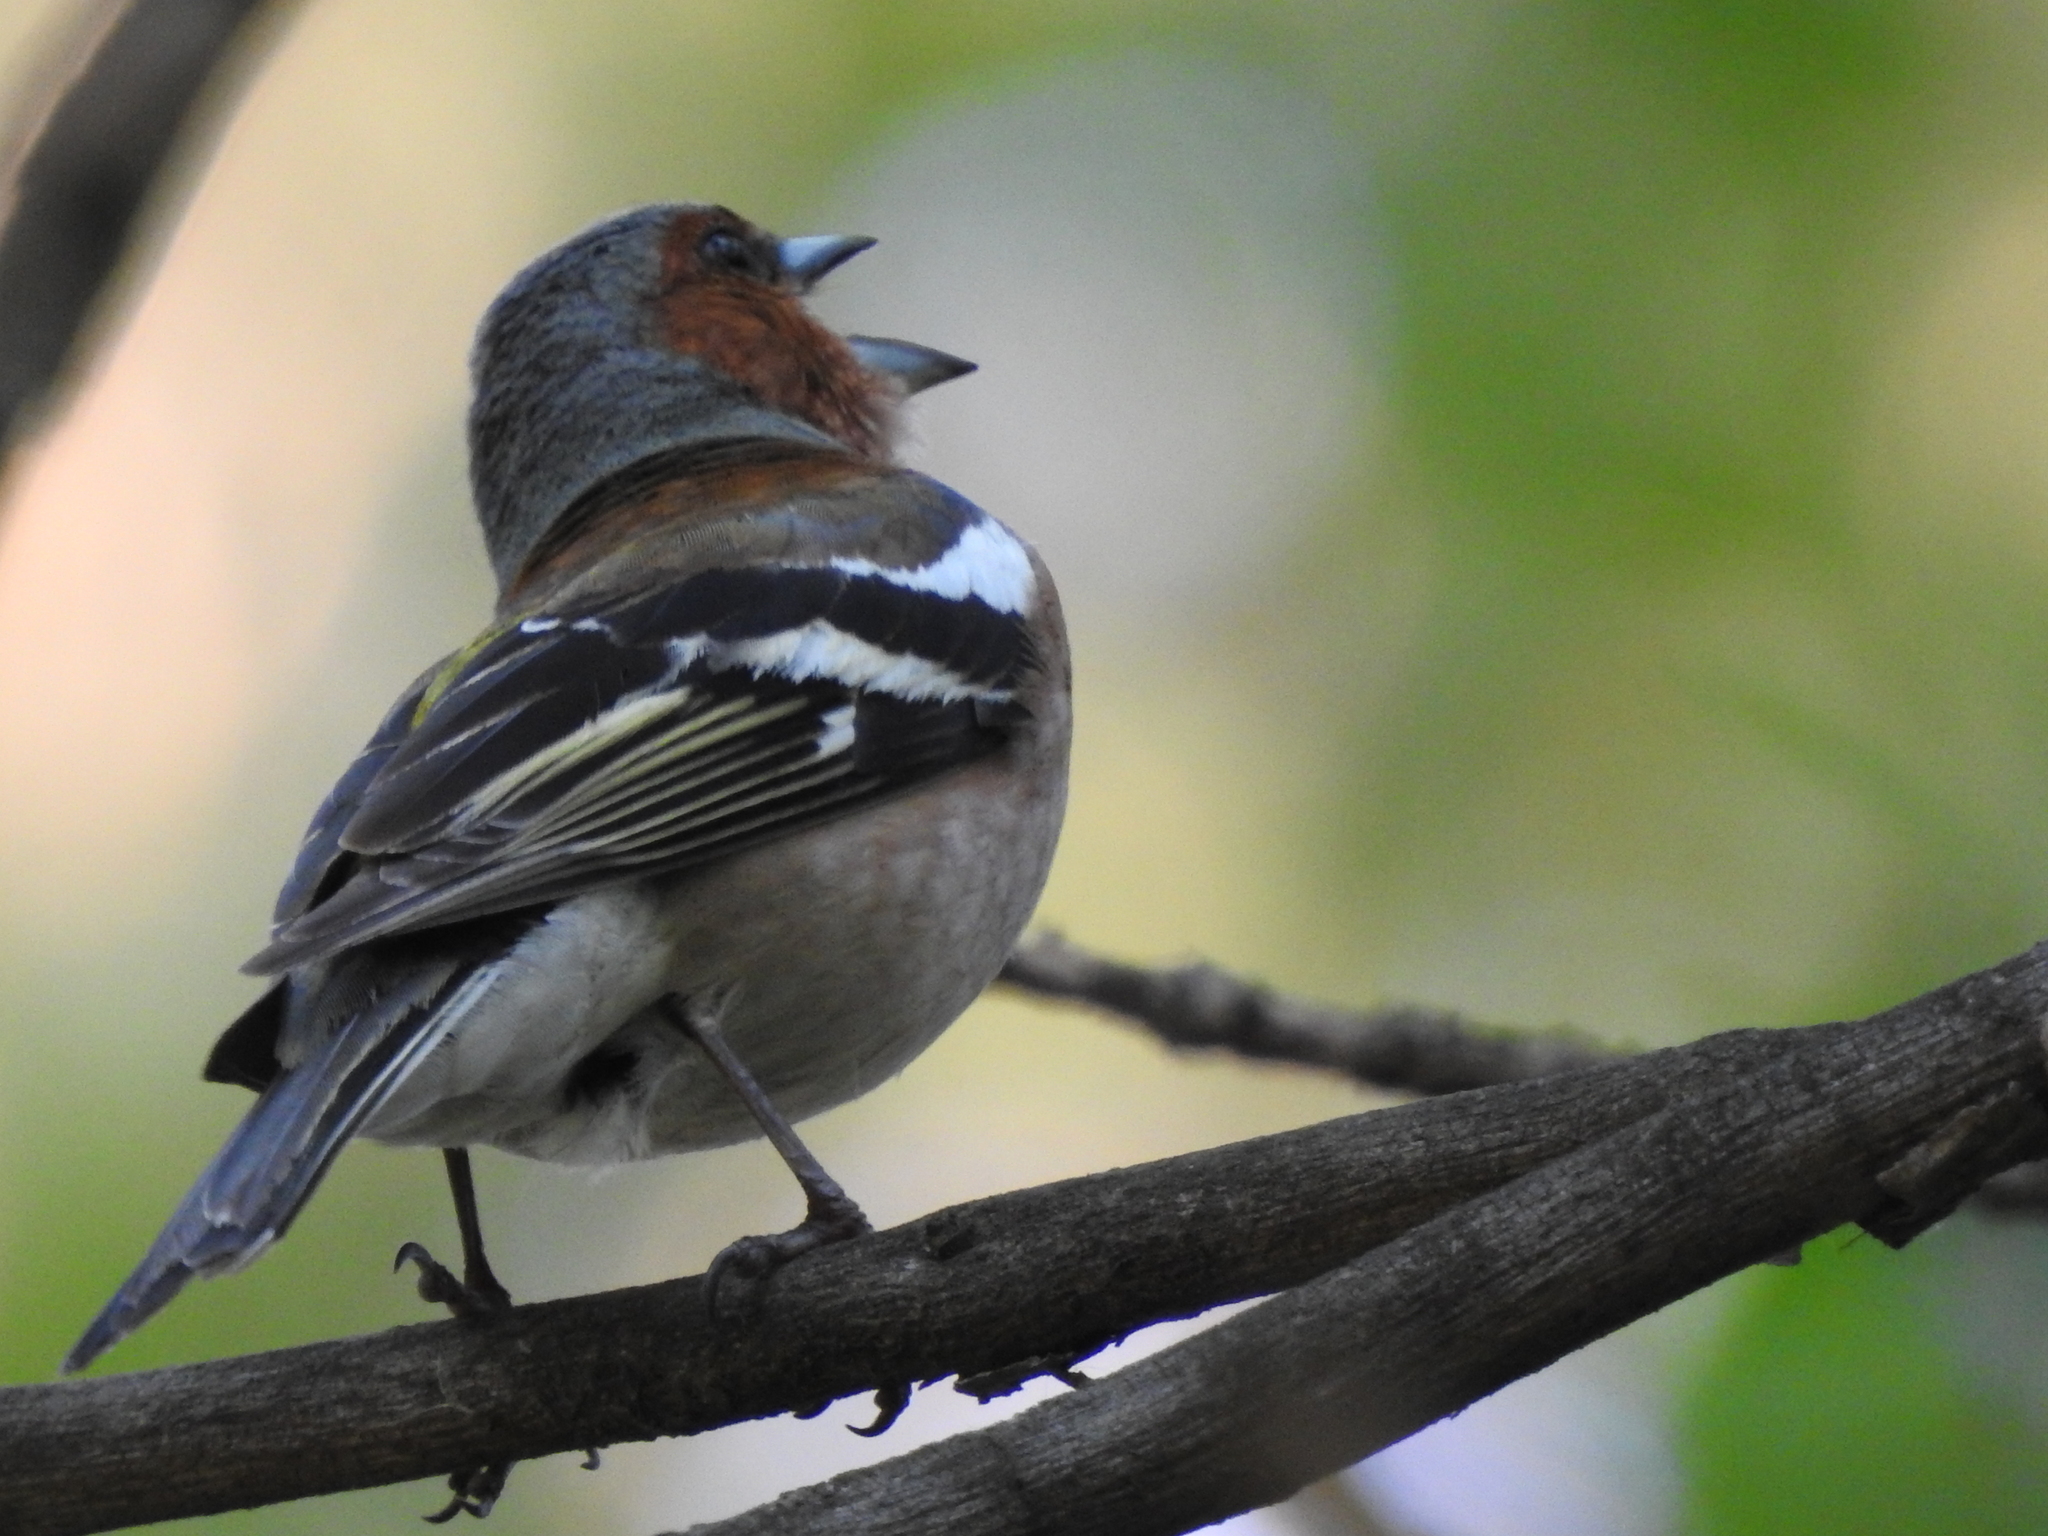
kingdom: Animalia
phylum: Chordata
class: Aves
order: Passeriformes
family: Fringillidae
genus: Fringilla
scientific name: Fringilla coelebs
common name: Common chaffinch
